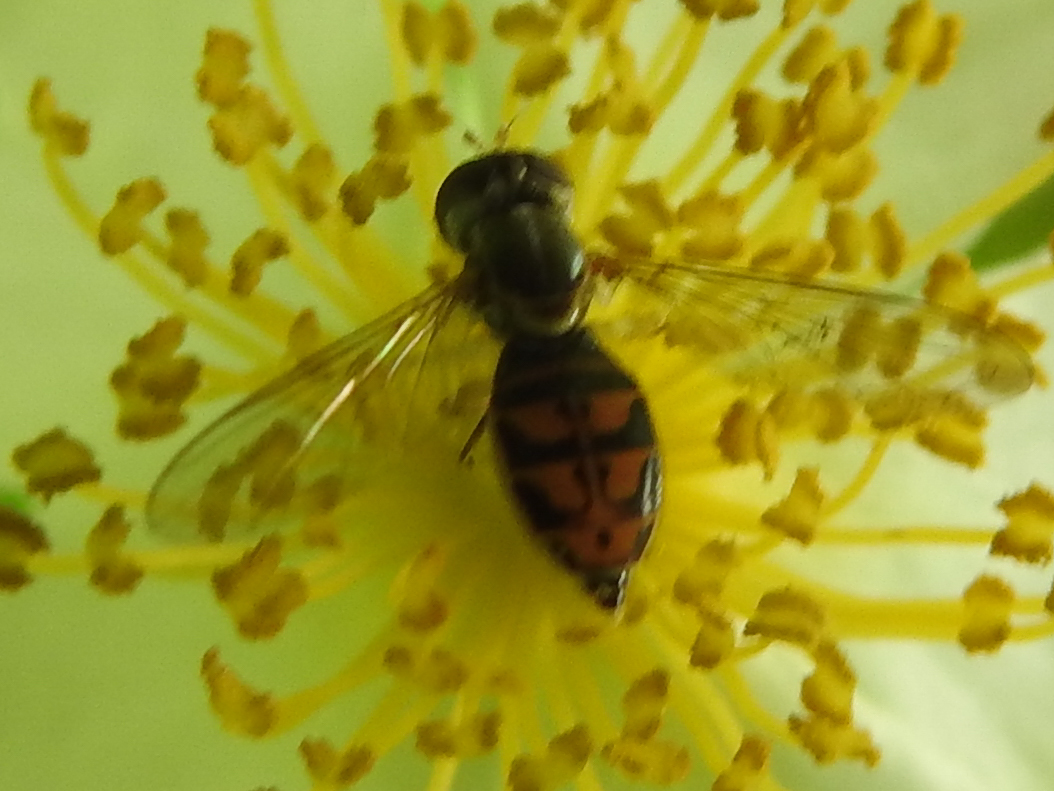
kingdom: Animalia
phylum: Arthropoda
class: Insecta
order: Diptera
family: Syrphidae
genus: Toxomerus
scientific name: Toxomerus marginatus
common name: Syrphid fly
